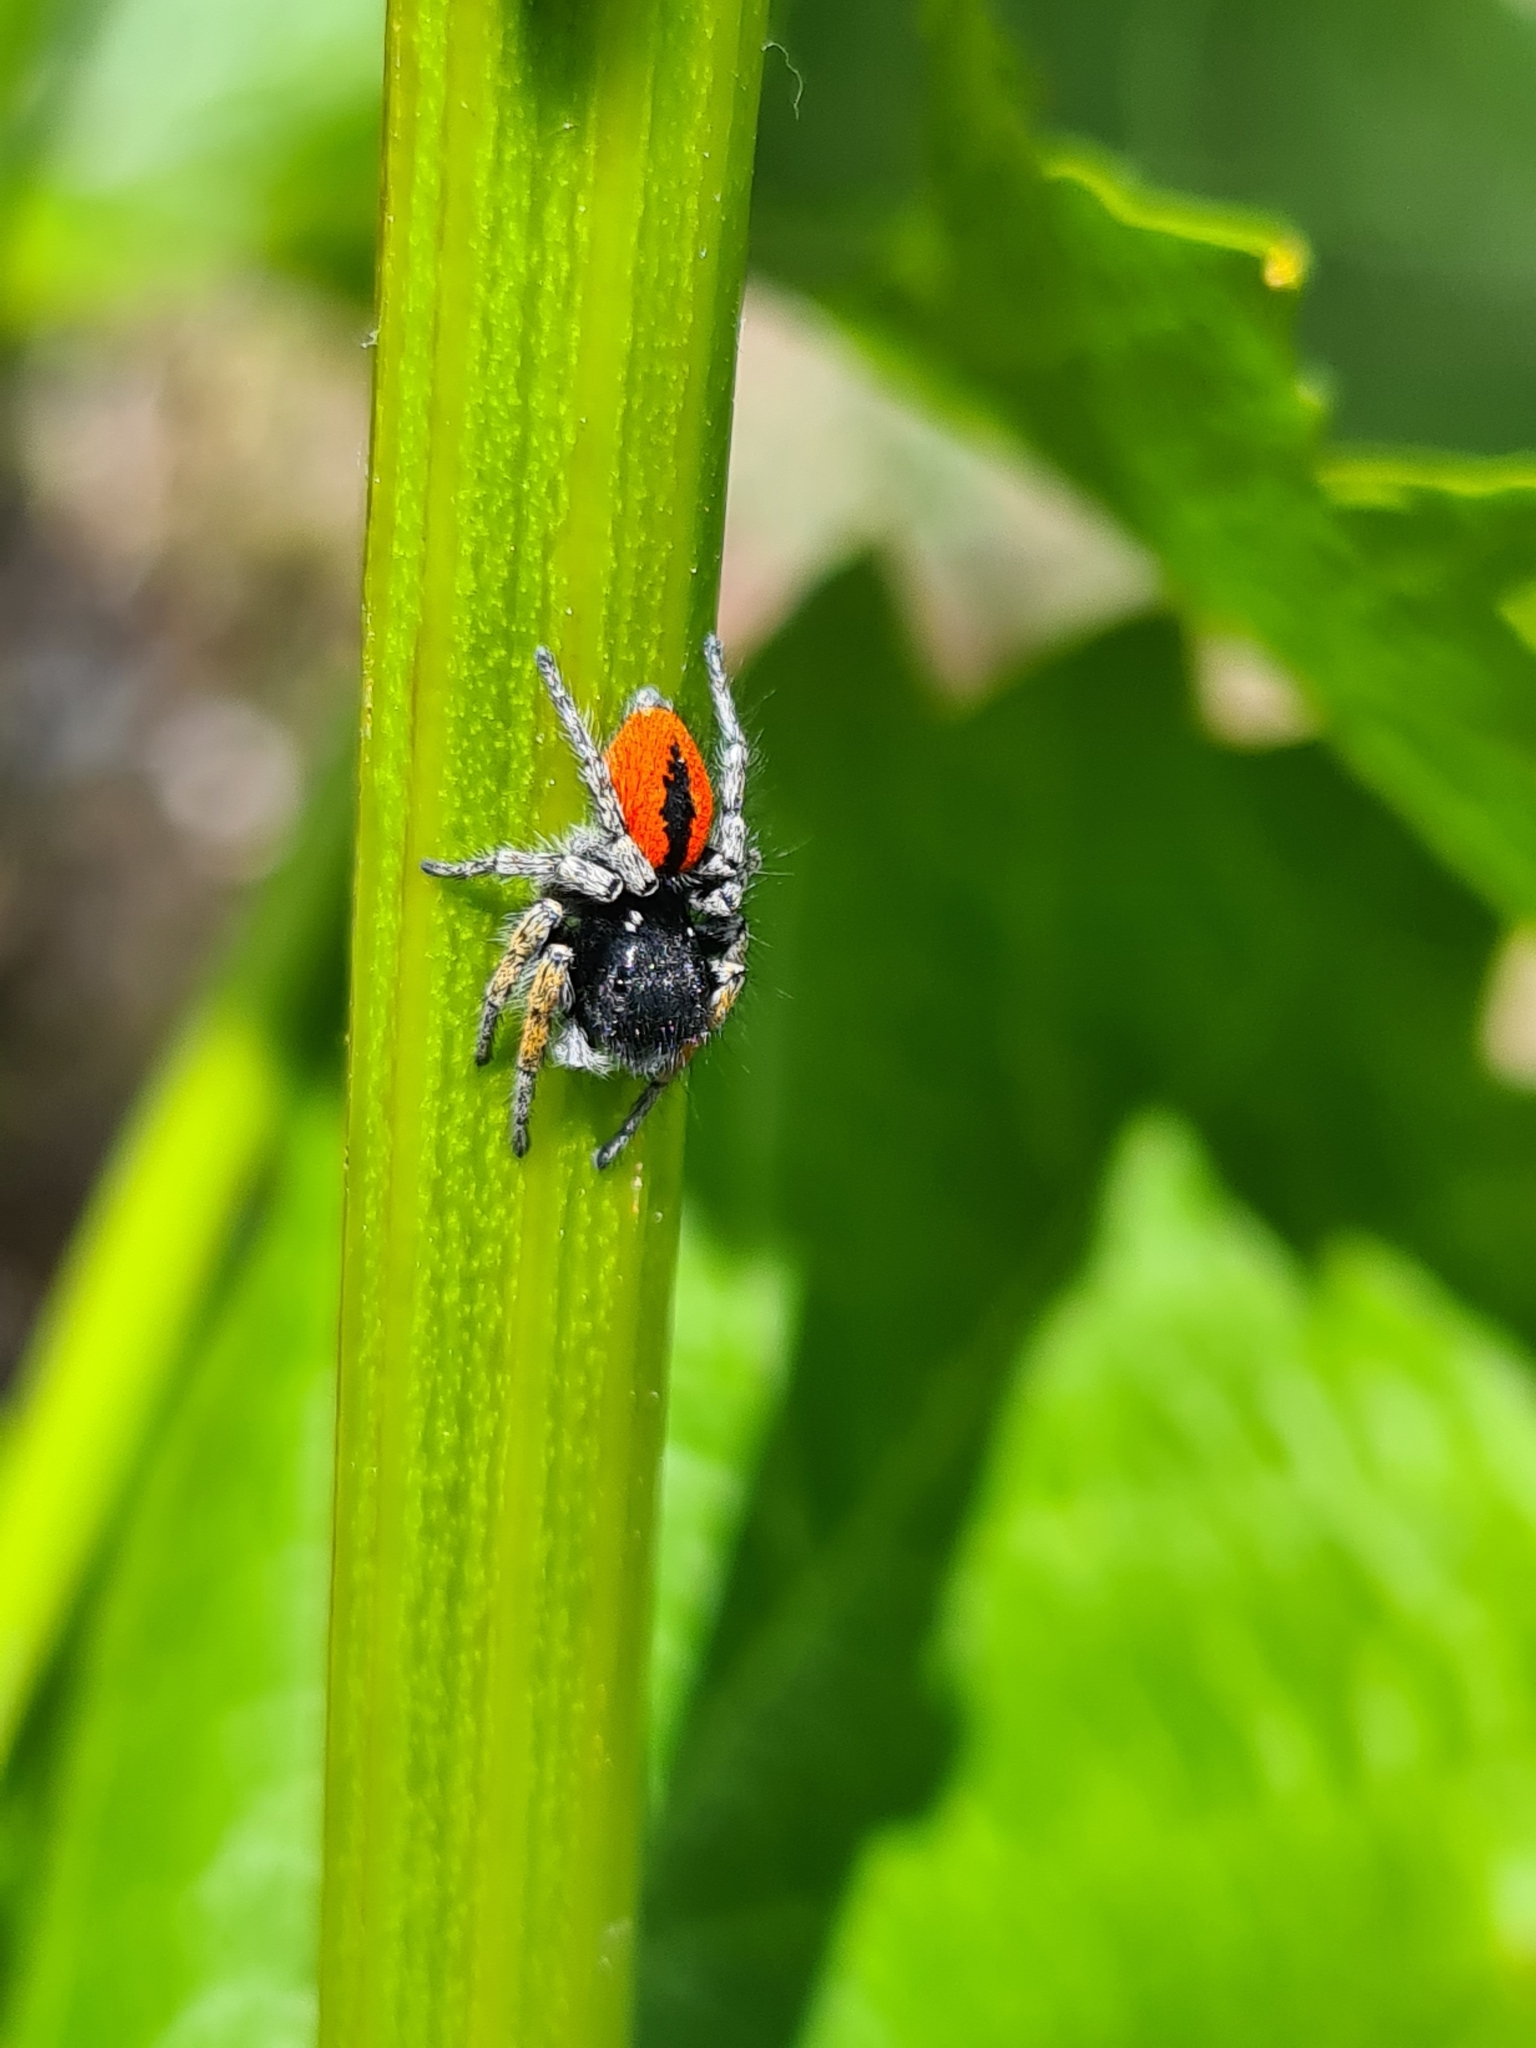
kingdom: Animalia
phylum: Arthropoda
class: Arachnida
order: Araneae
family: Salticidae
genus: Philaeus
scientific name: Philaeus chrysops
